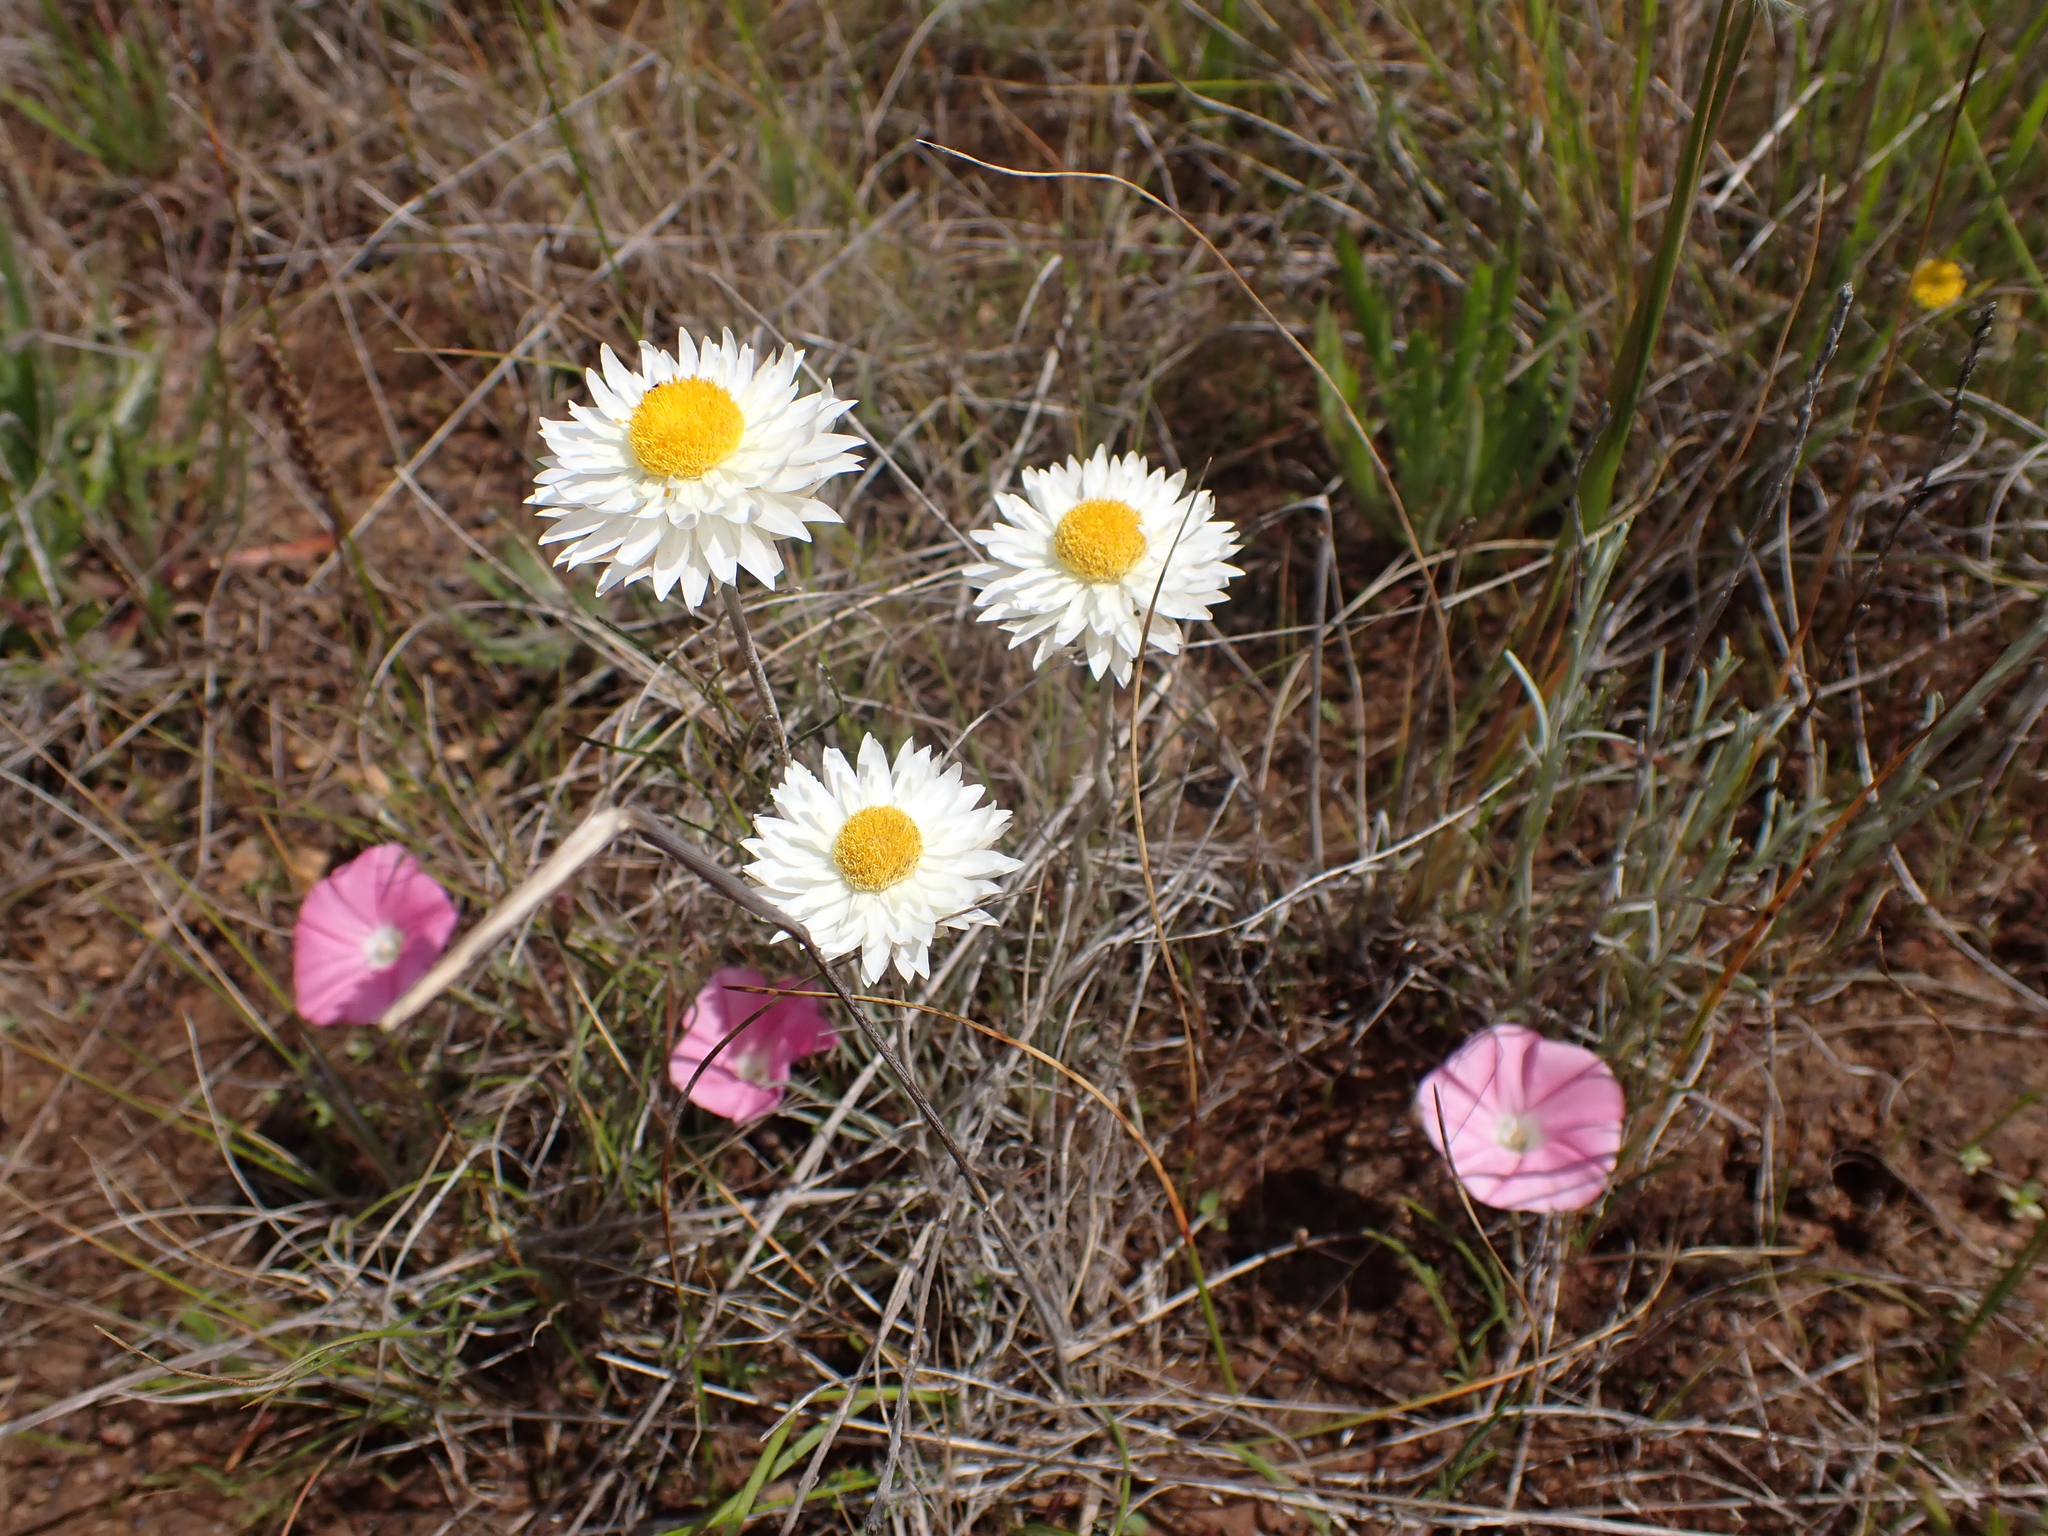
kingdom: Plantae
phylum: Tracheophyta
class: Magnoliopsida
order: Asterales
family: Asteraceae
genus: Leucochrysum
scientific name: Leucochrysum albicans
